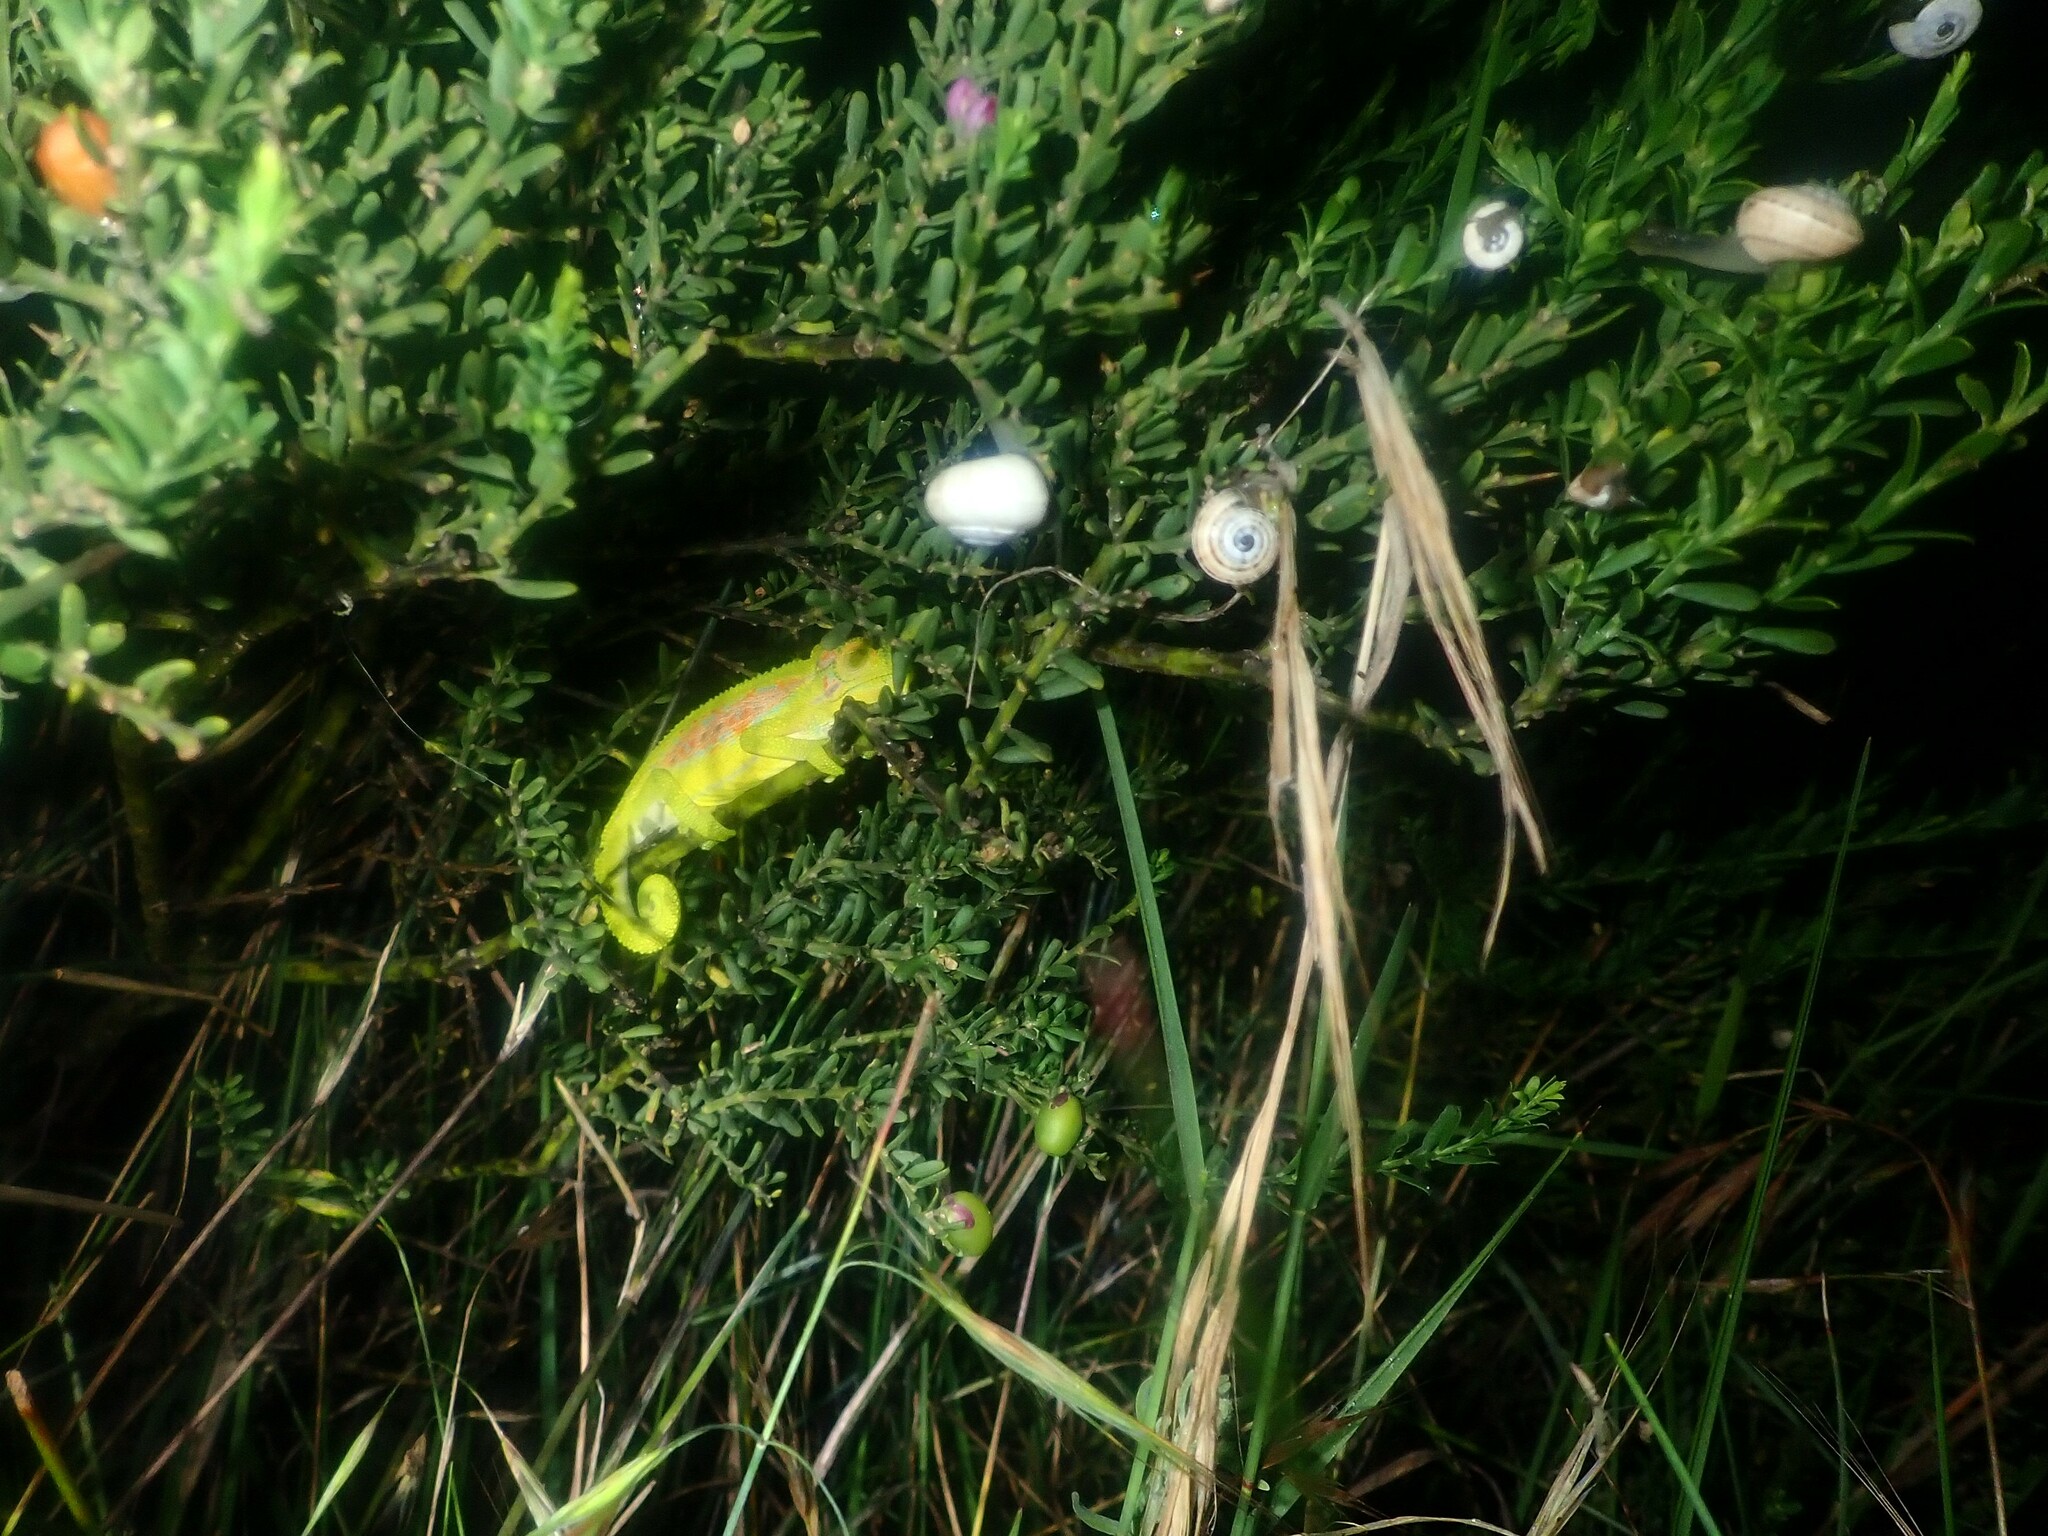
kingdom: Animalia
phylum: Chordata
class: Squamata
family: Chamaeleonidae
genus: Bradypodion
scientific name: Bradypodion pumilum
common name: Cape dwarf chameleon
